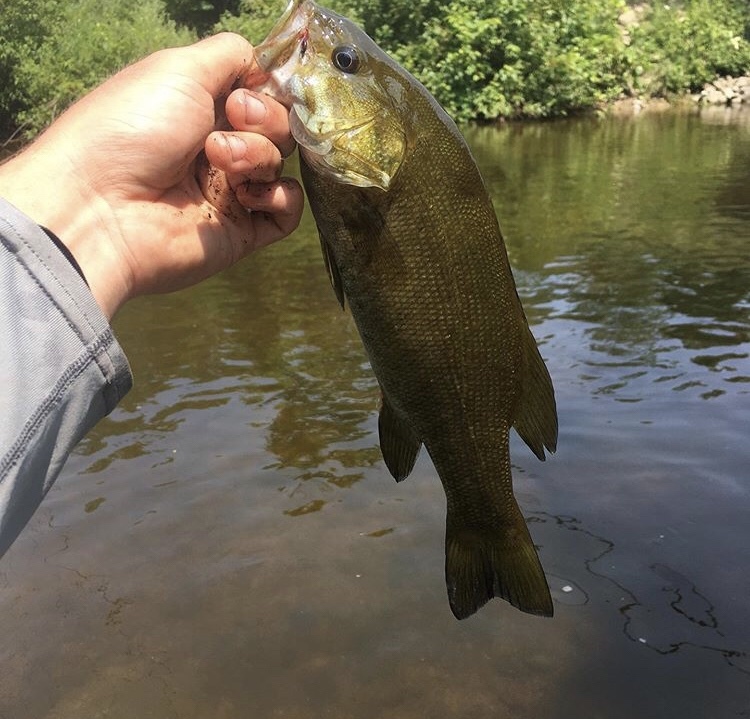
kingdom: Animalia
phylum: Chordata
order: Perciformes
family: Centrarchidae
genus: Micropterus
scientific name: Micropterus dolomieu
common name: Smallmouth bass
